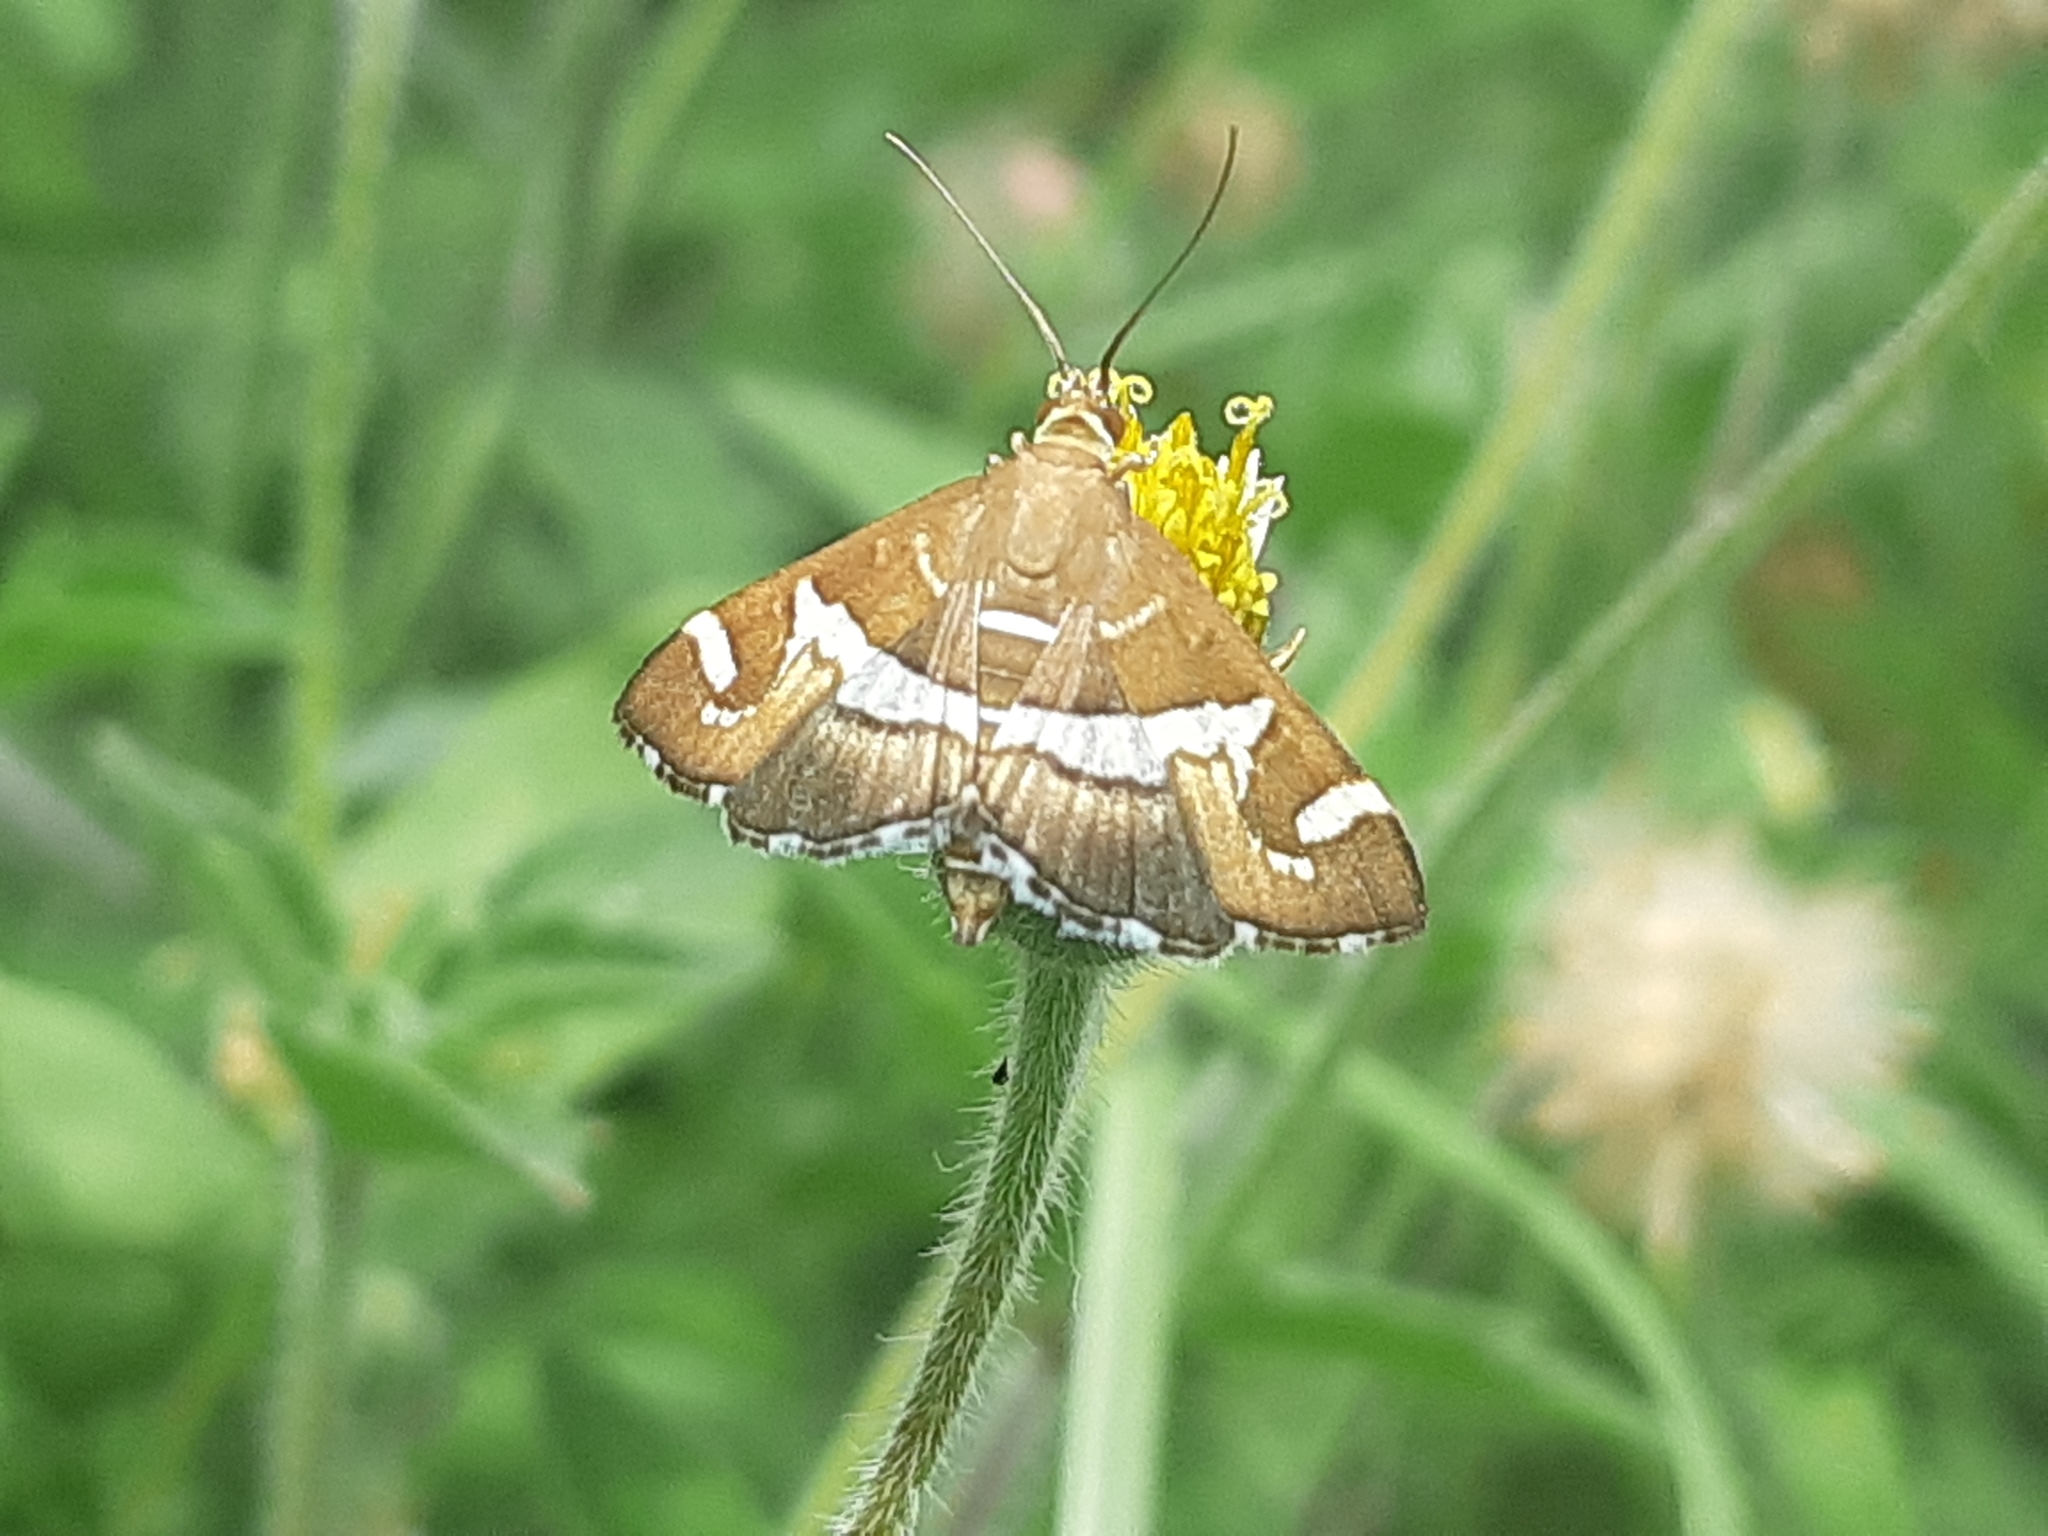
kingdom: Animalia
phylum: Arthropoda
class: Insecta
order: Lepidoptera
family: Crambidae
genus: Spoladea
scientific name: Spoladea recurvalis
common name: Beet webworm moth
